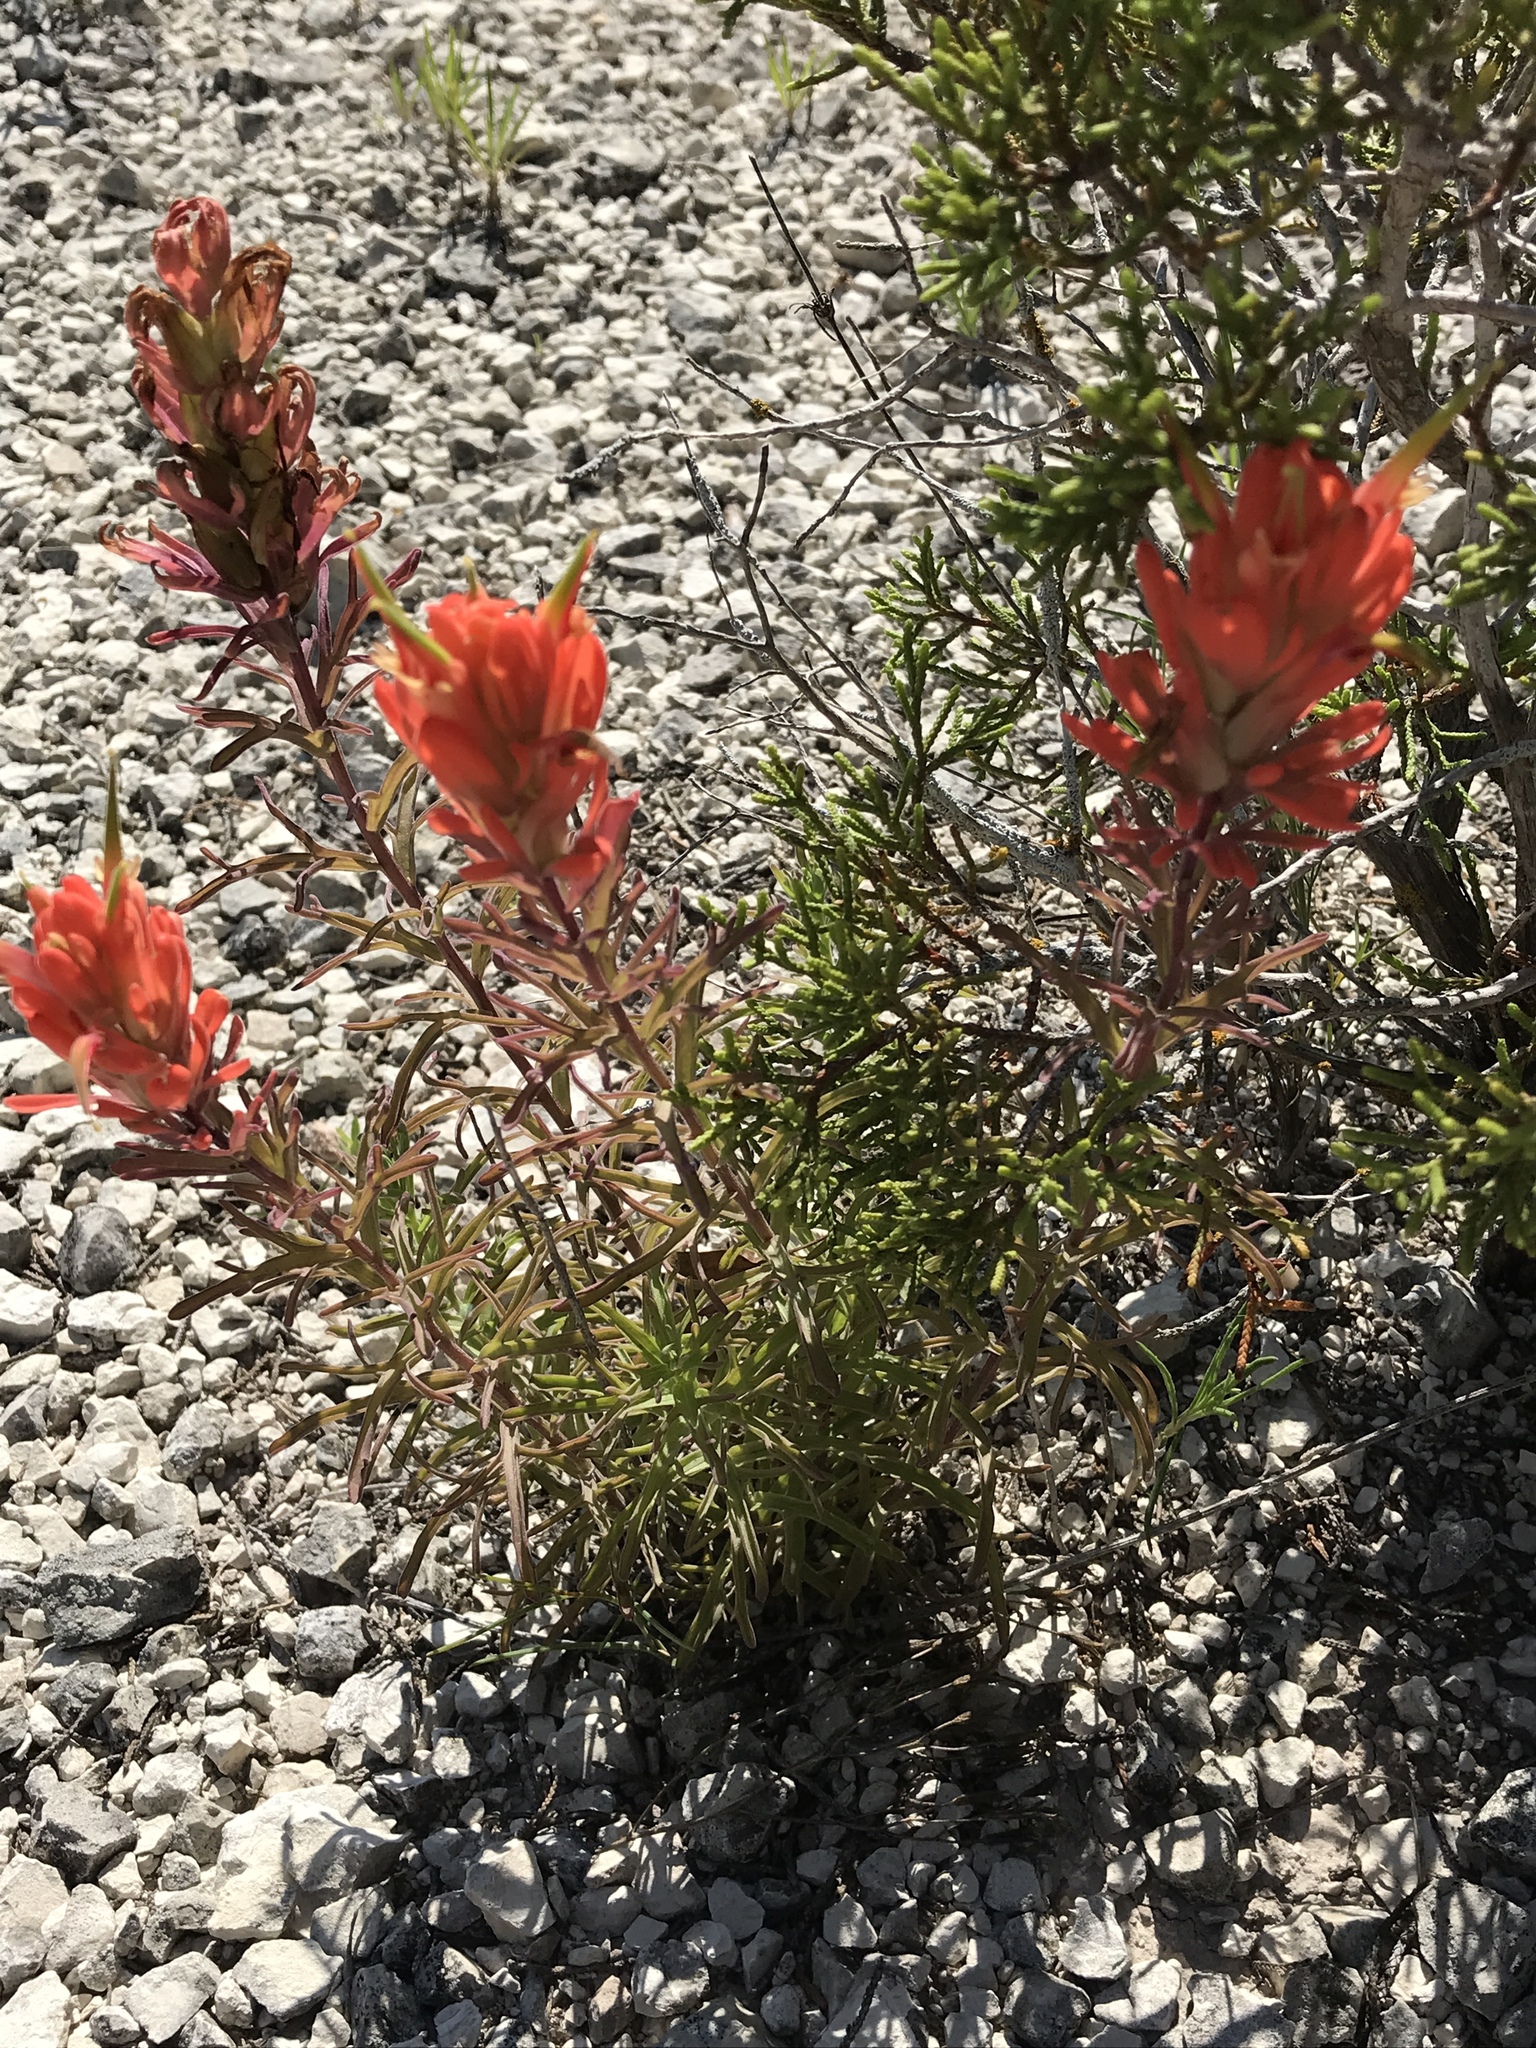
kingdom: Plantae
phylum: Tracheophyta
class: Magnoliopsida
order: Lamiales
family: Orobanchaceae
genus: Castilleja
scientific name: Castilleja lindheimeri
